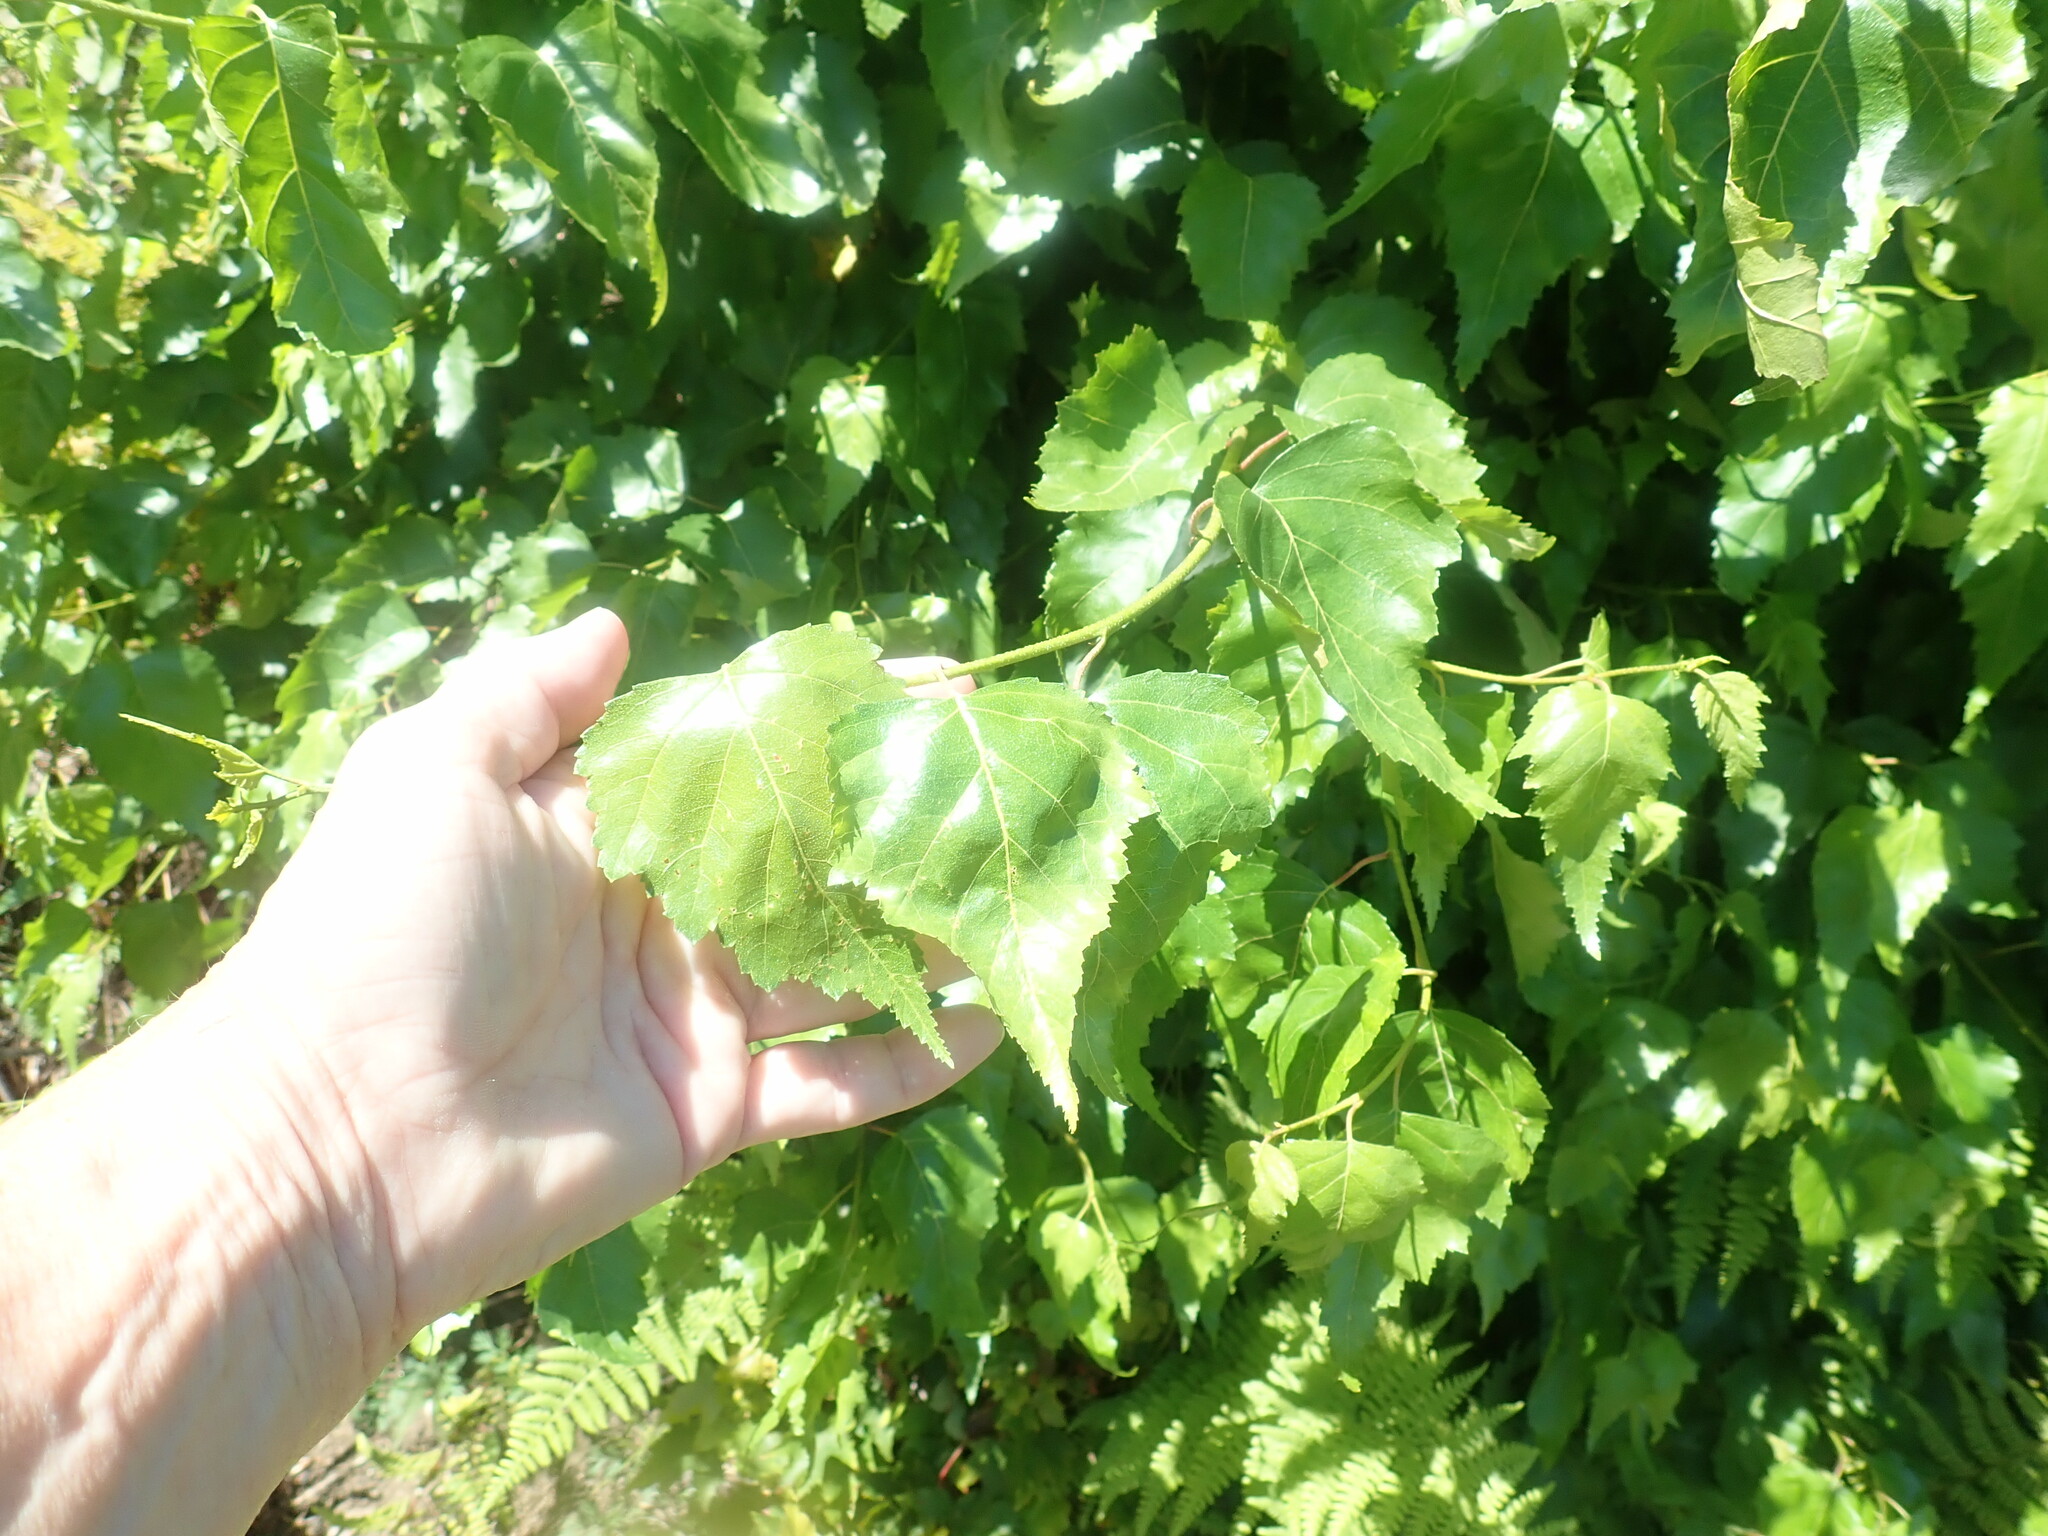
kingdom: Plantae
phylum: Tracheophyta
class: Magnoliopsida
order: Fagales
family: Betulaceae
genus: Betula
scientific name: Betula populifolia
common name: Fire birch
